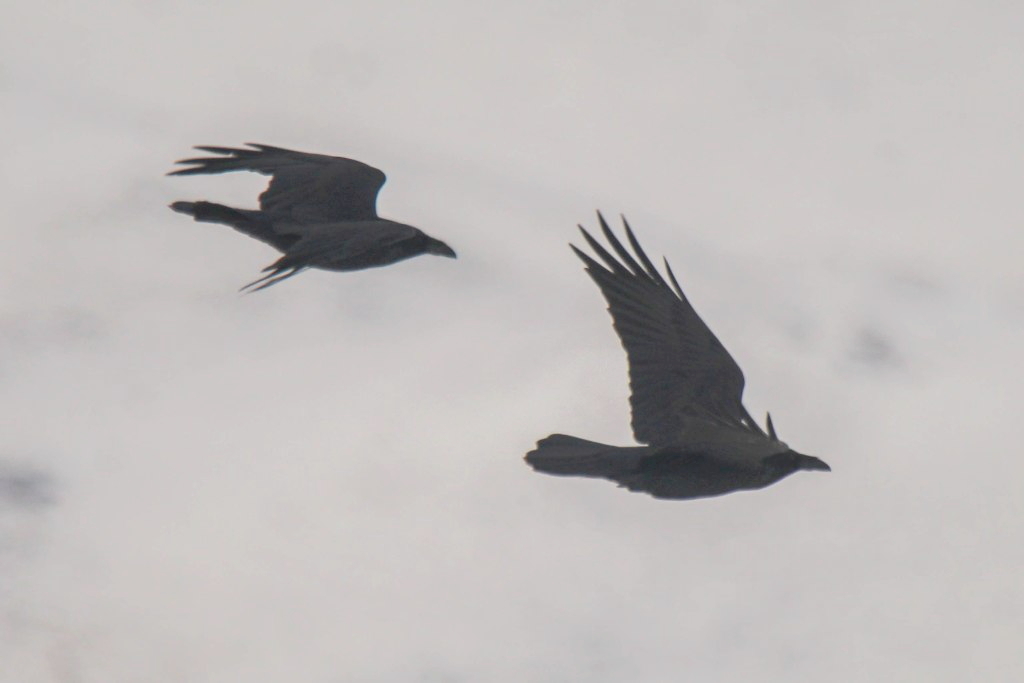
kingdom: Animalia
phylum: Chordata
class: Aves
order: Passeriformes
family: Corvidae
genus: Corvus
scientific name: Corvus corax
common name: Common raven
